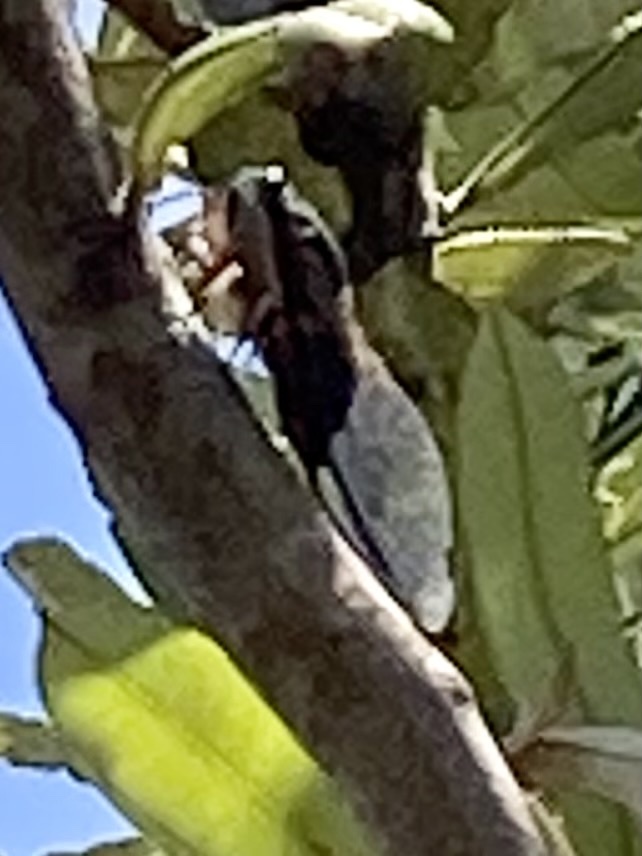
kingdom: Animalia
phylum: Arthropoda
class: Insecta
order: Hemiptera
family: Cicadidae
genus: Psaltoda
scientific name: Psaltoda harrisii
